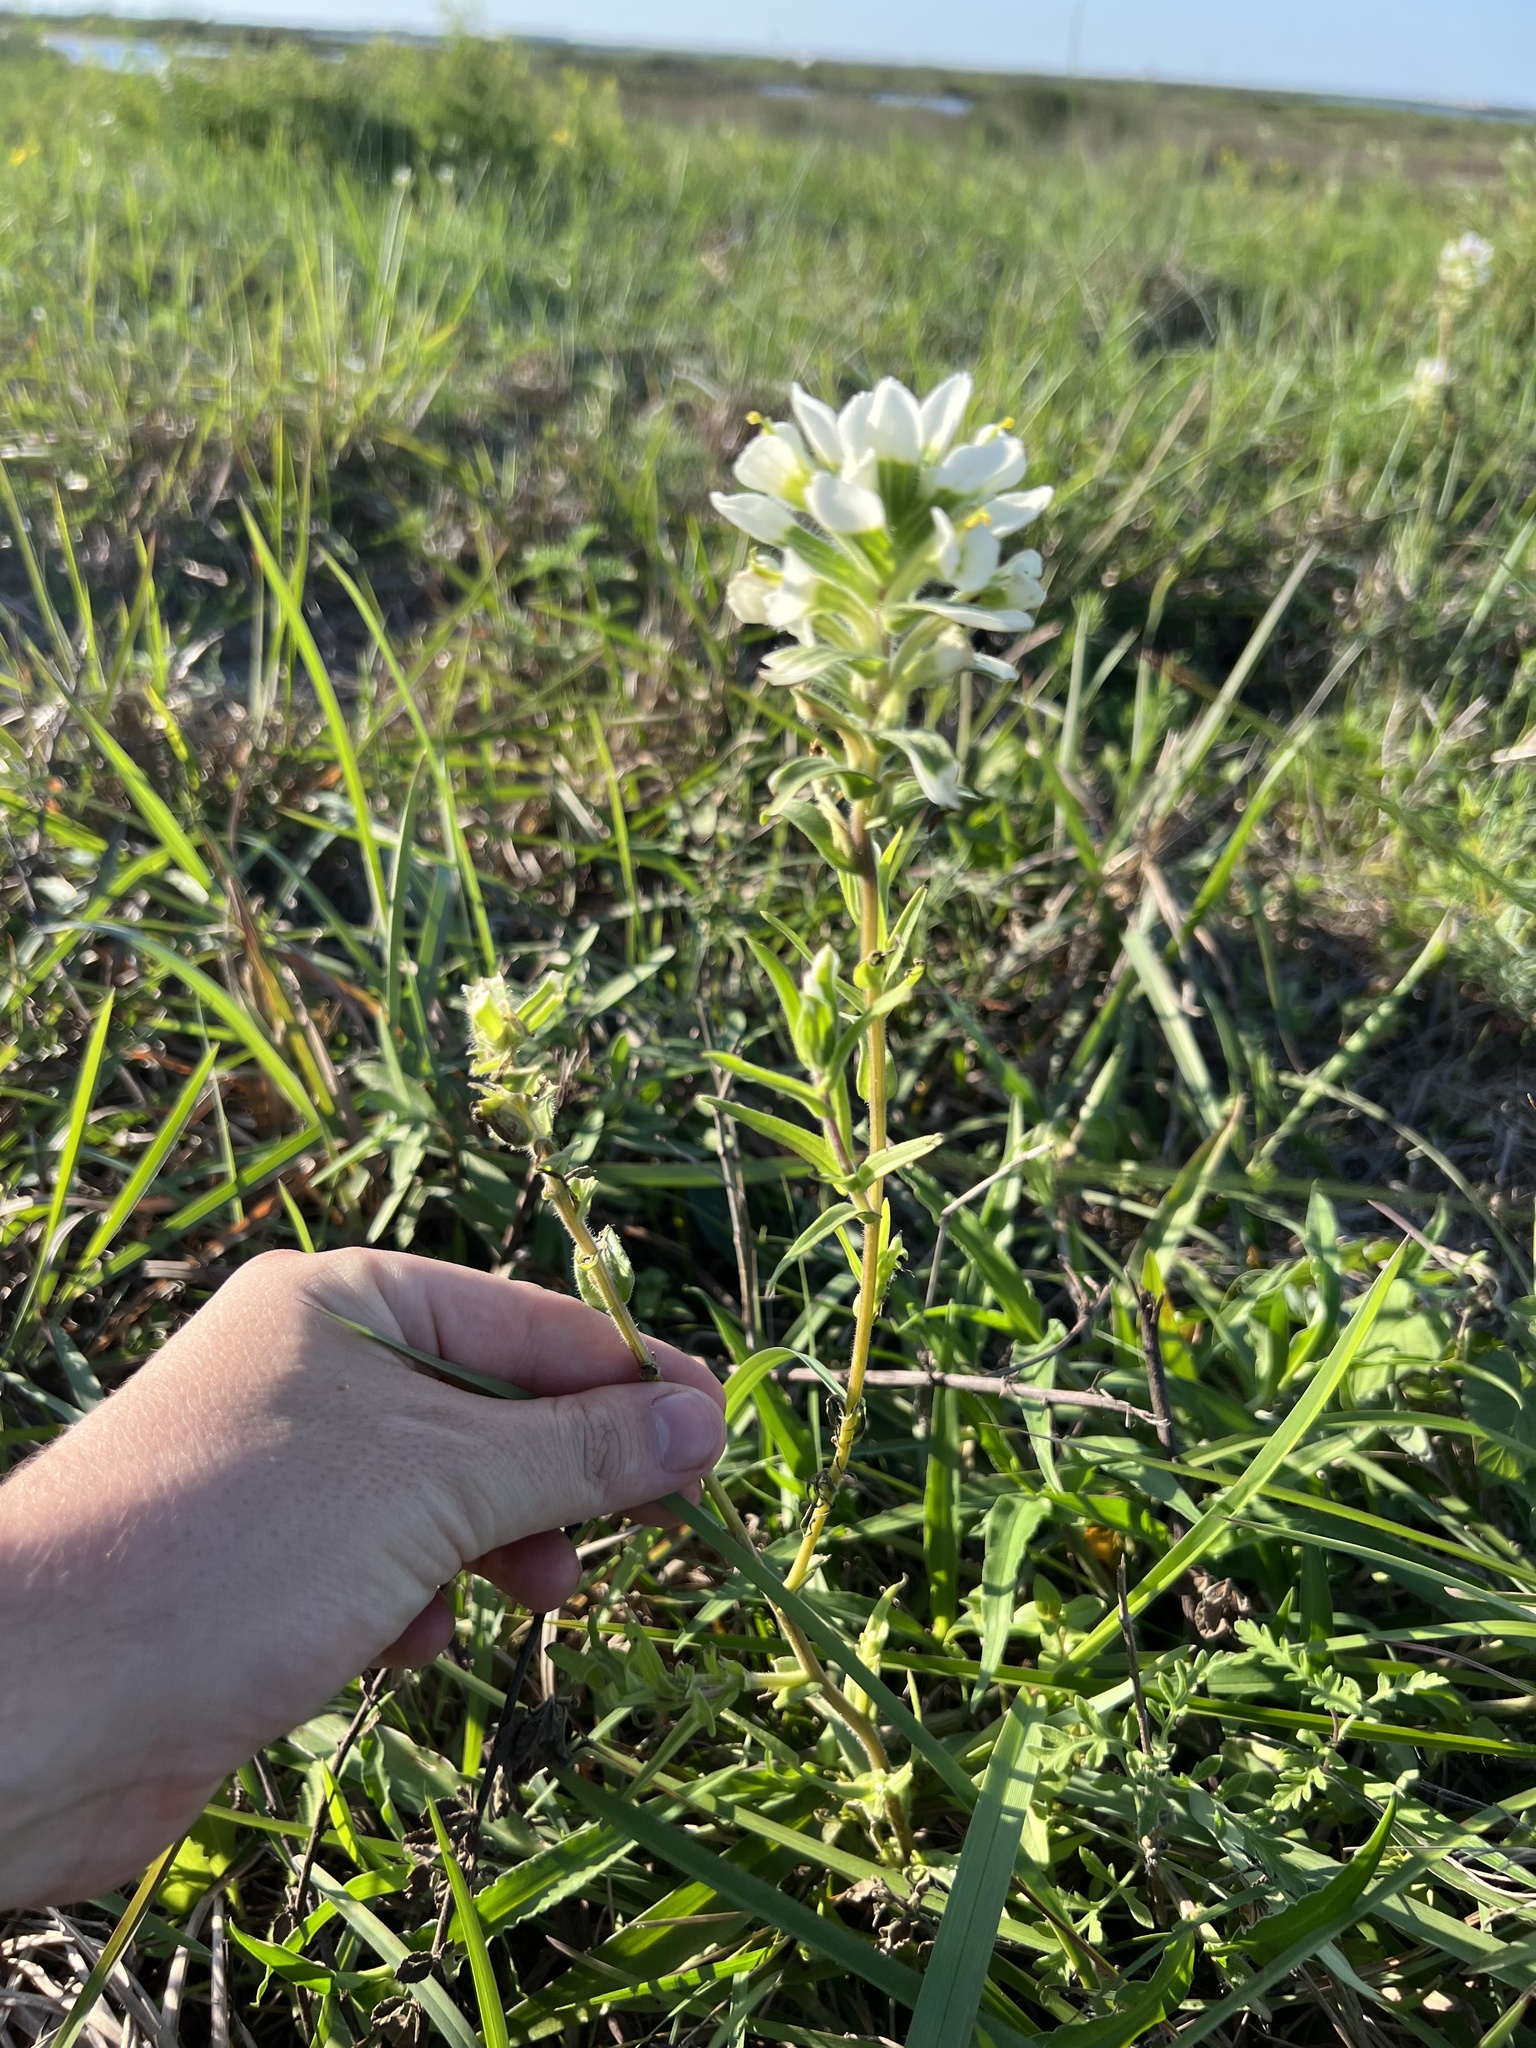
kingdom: Plantae
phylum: Tracheophyta
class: Magnoliopsida
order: Lamiales
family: Orobanchaceae
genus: Castilleja
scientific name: Castilleja halophila
